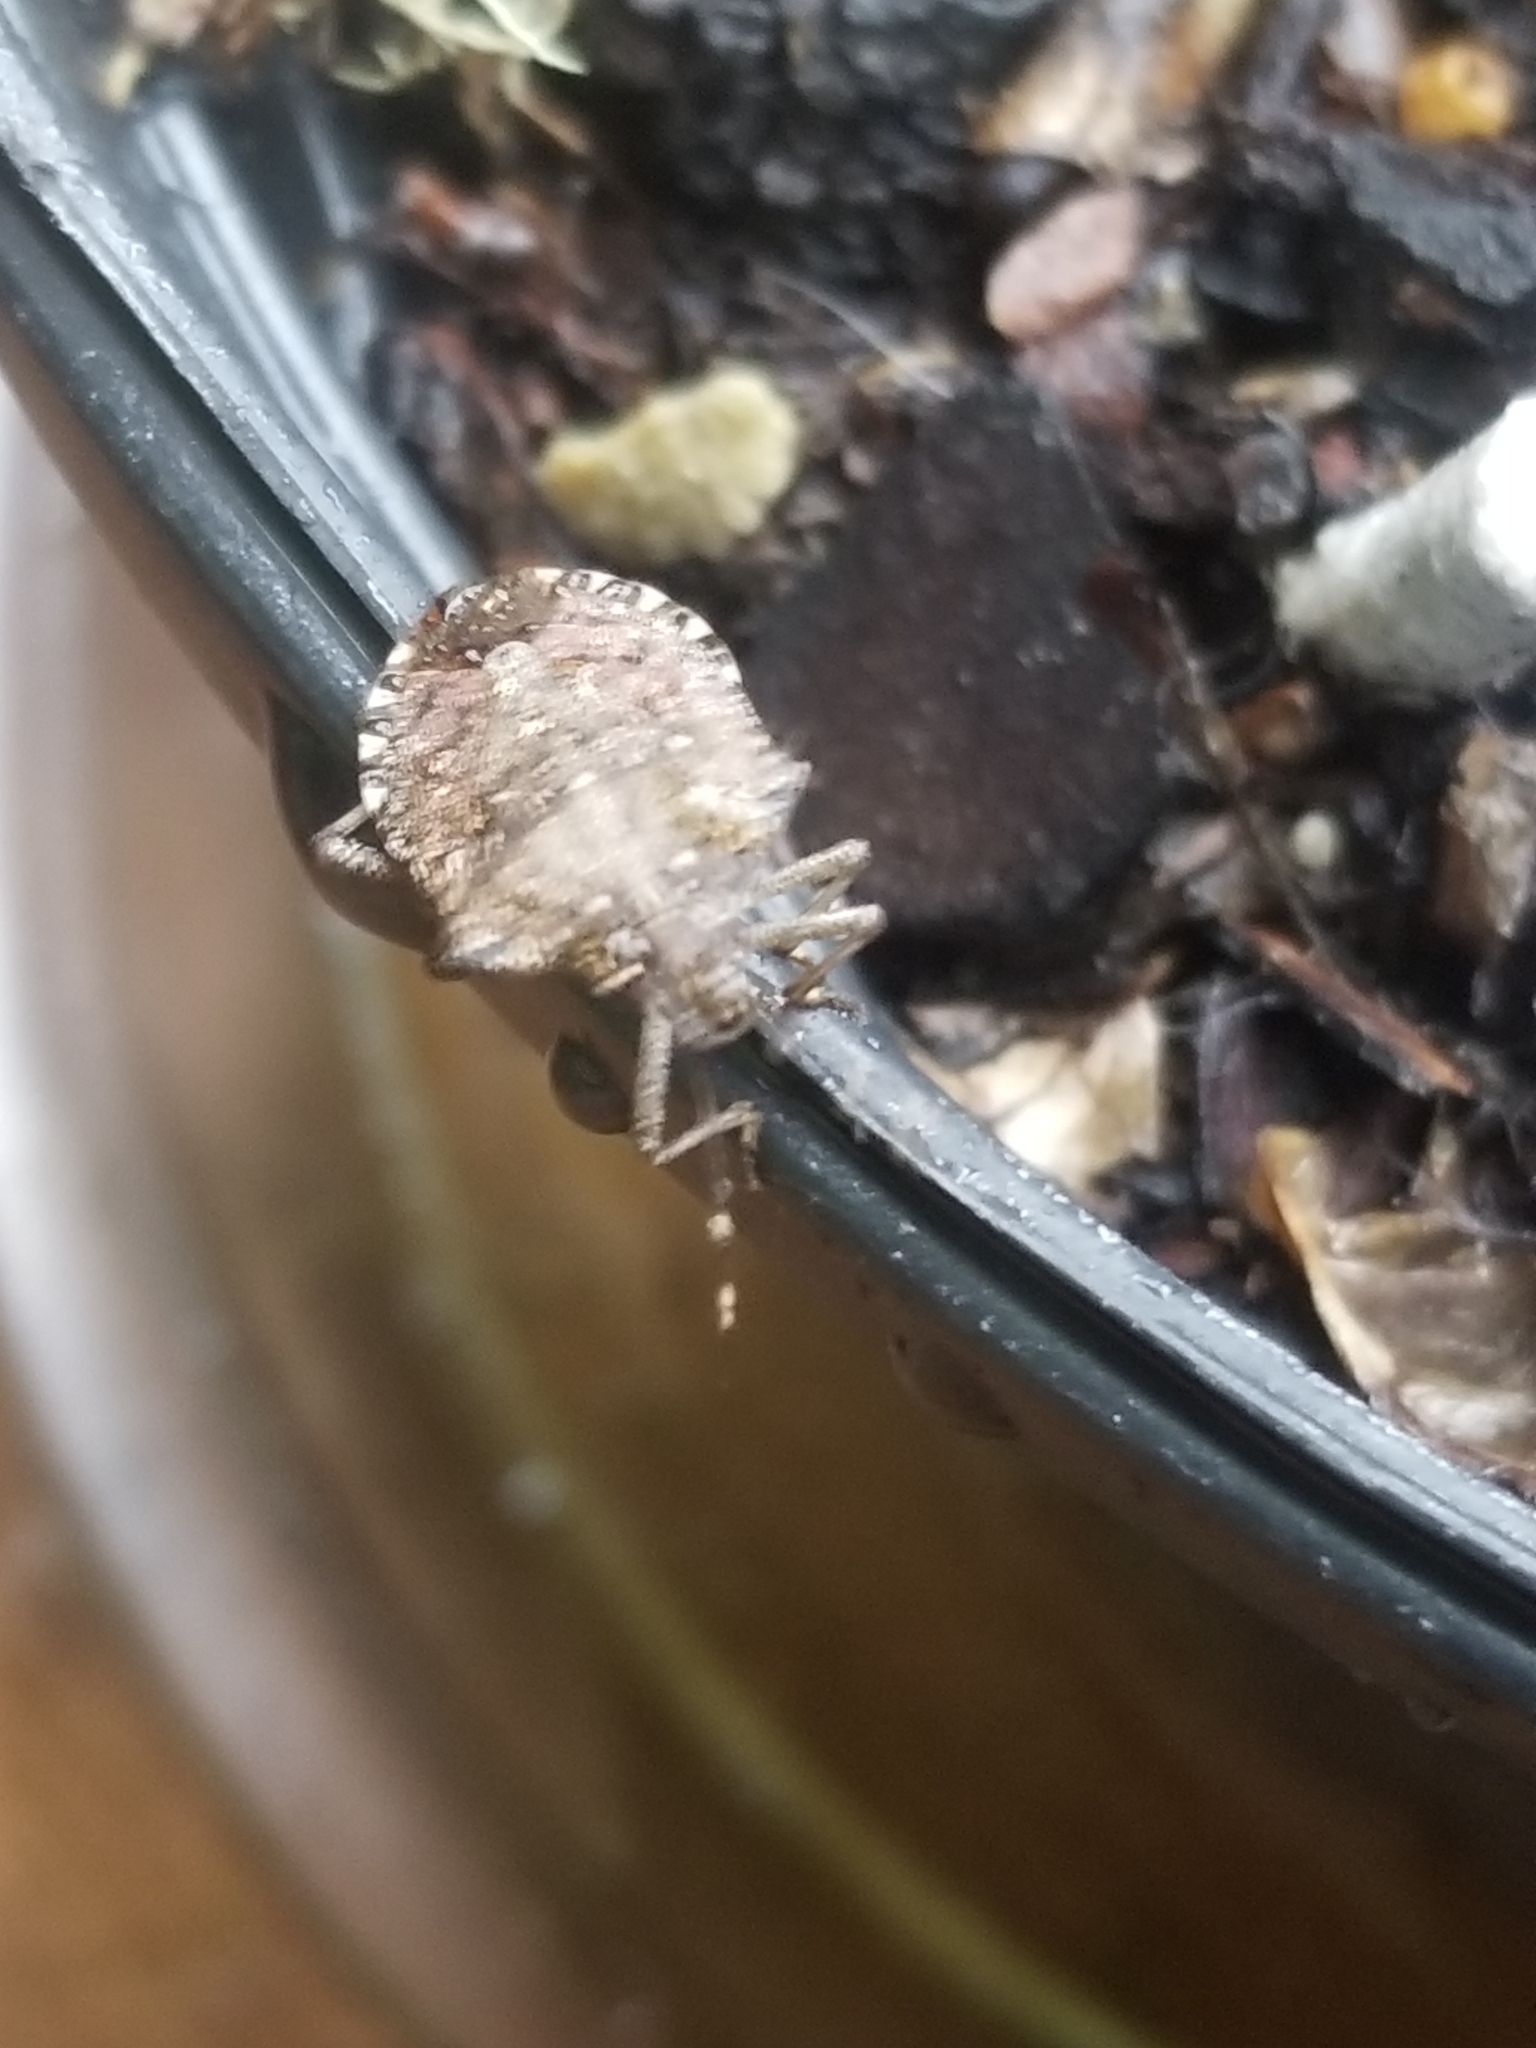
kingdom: Animalia
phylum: Arthropoda
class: Insecta
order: Hemiptera
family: Pentatomidae
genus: Halyomorpha
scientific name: Halyomorpha halys
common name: Brown marmorated stink bug
